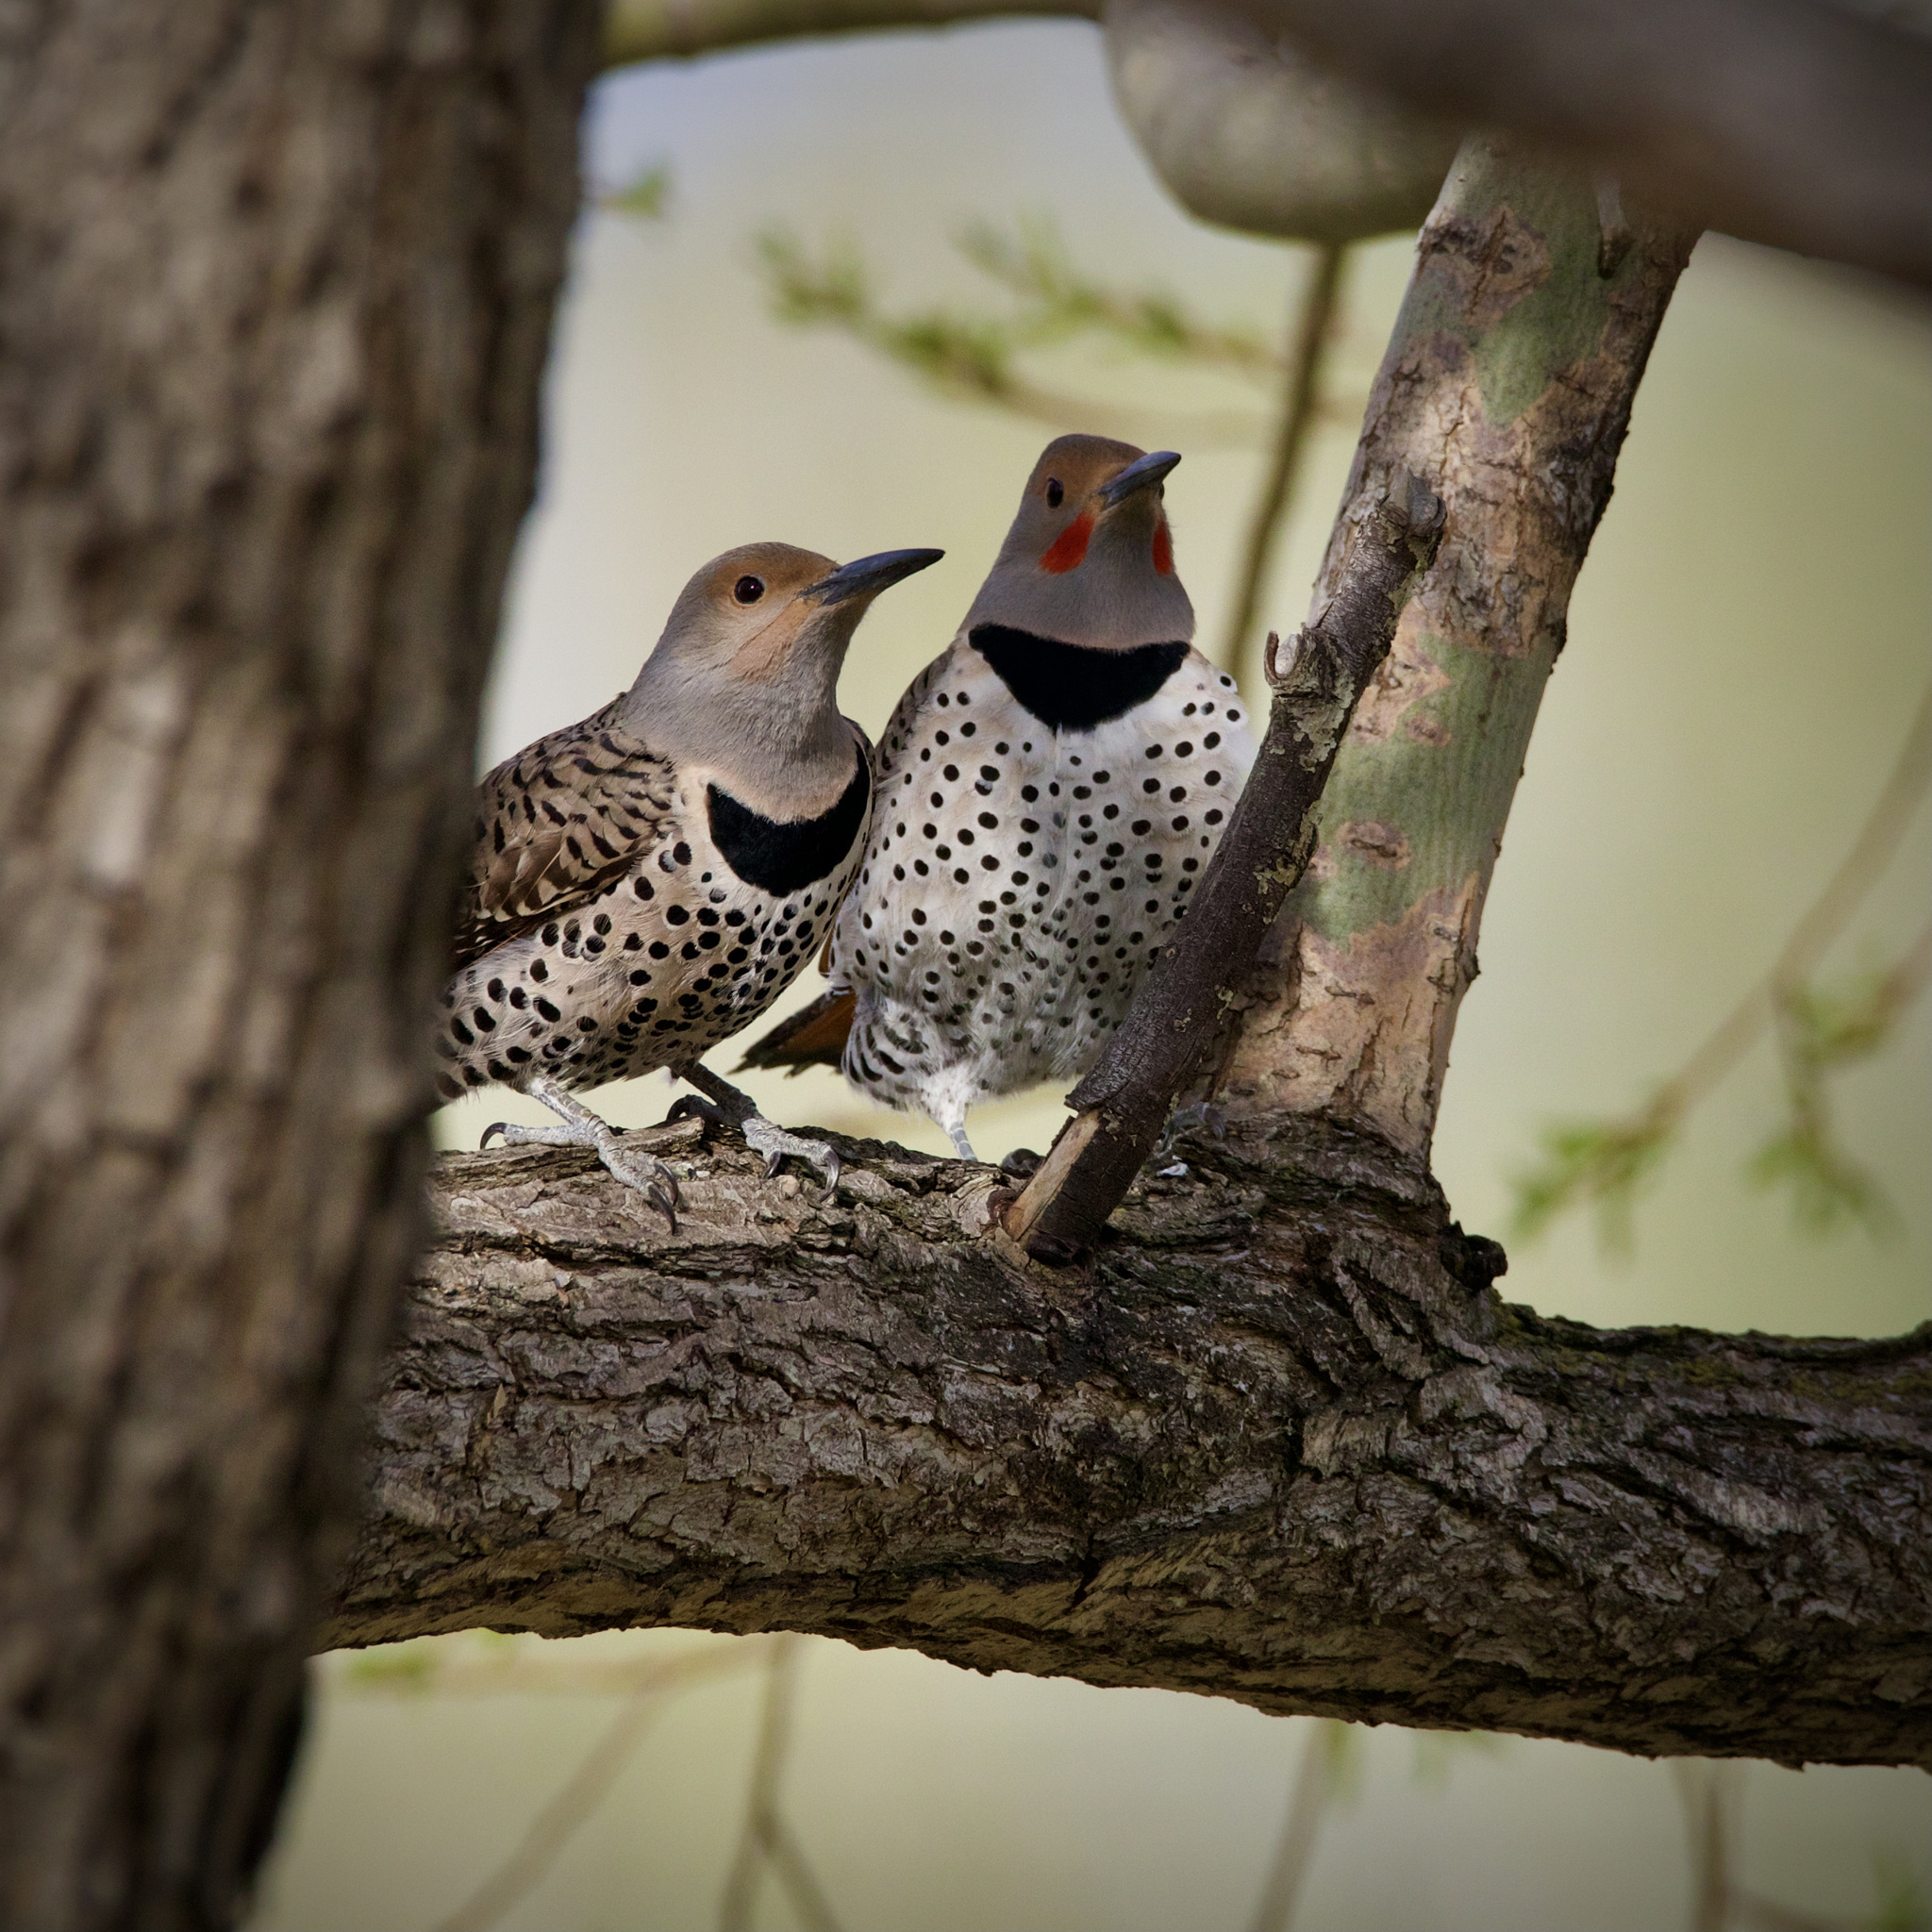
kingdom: Animalia
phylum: Chordata
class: Aves
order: Piciformes
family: Picidae
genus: Colaptes
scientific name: Colaptes auratus
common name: Northern flicker
